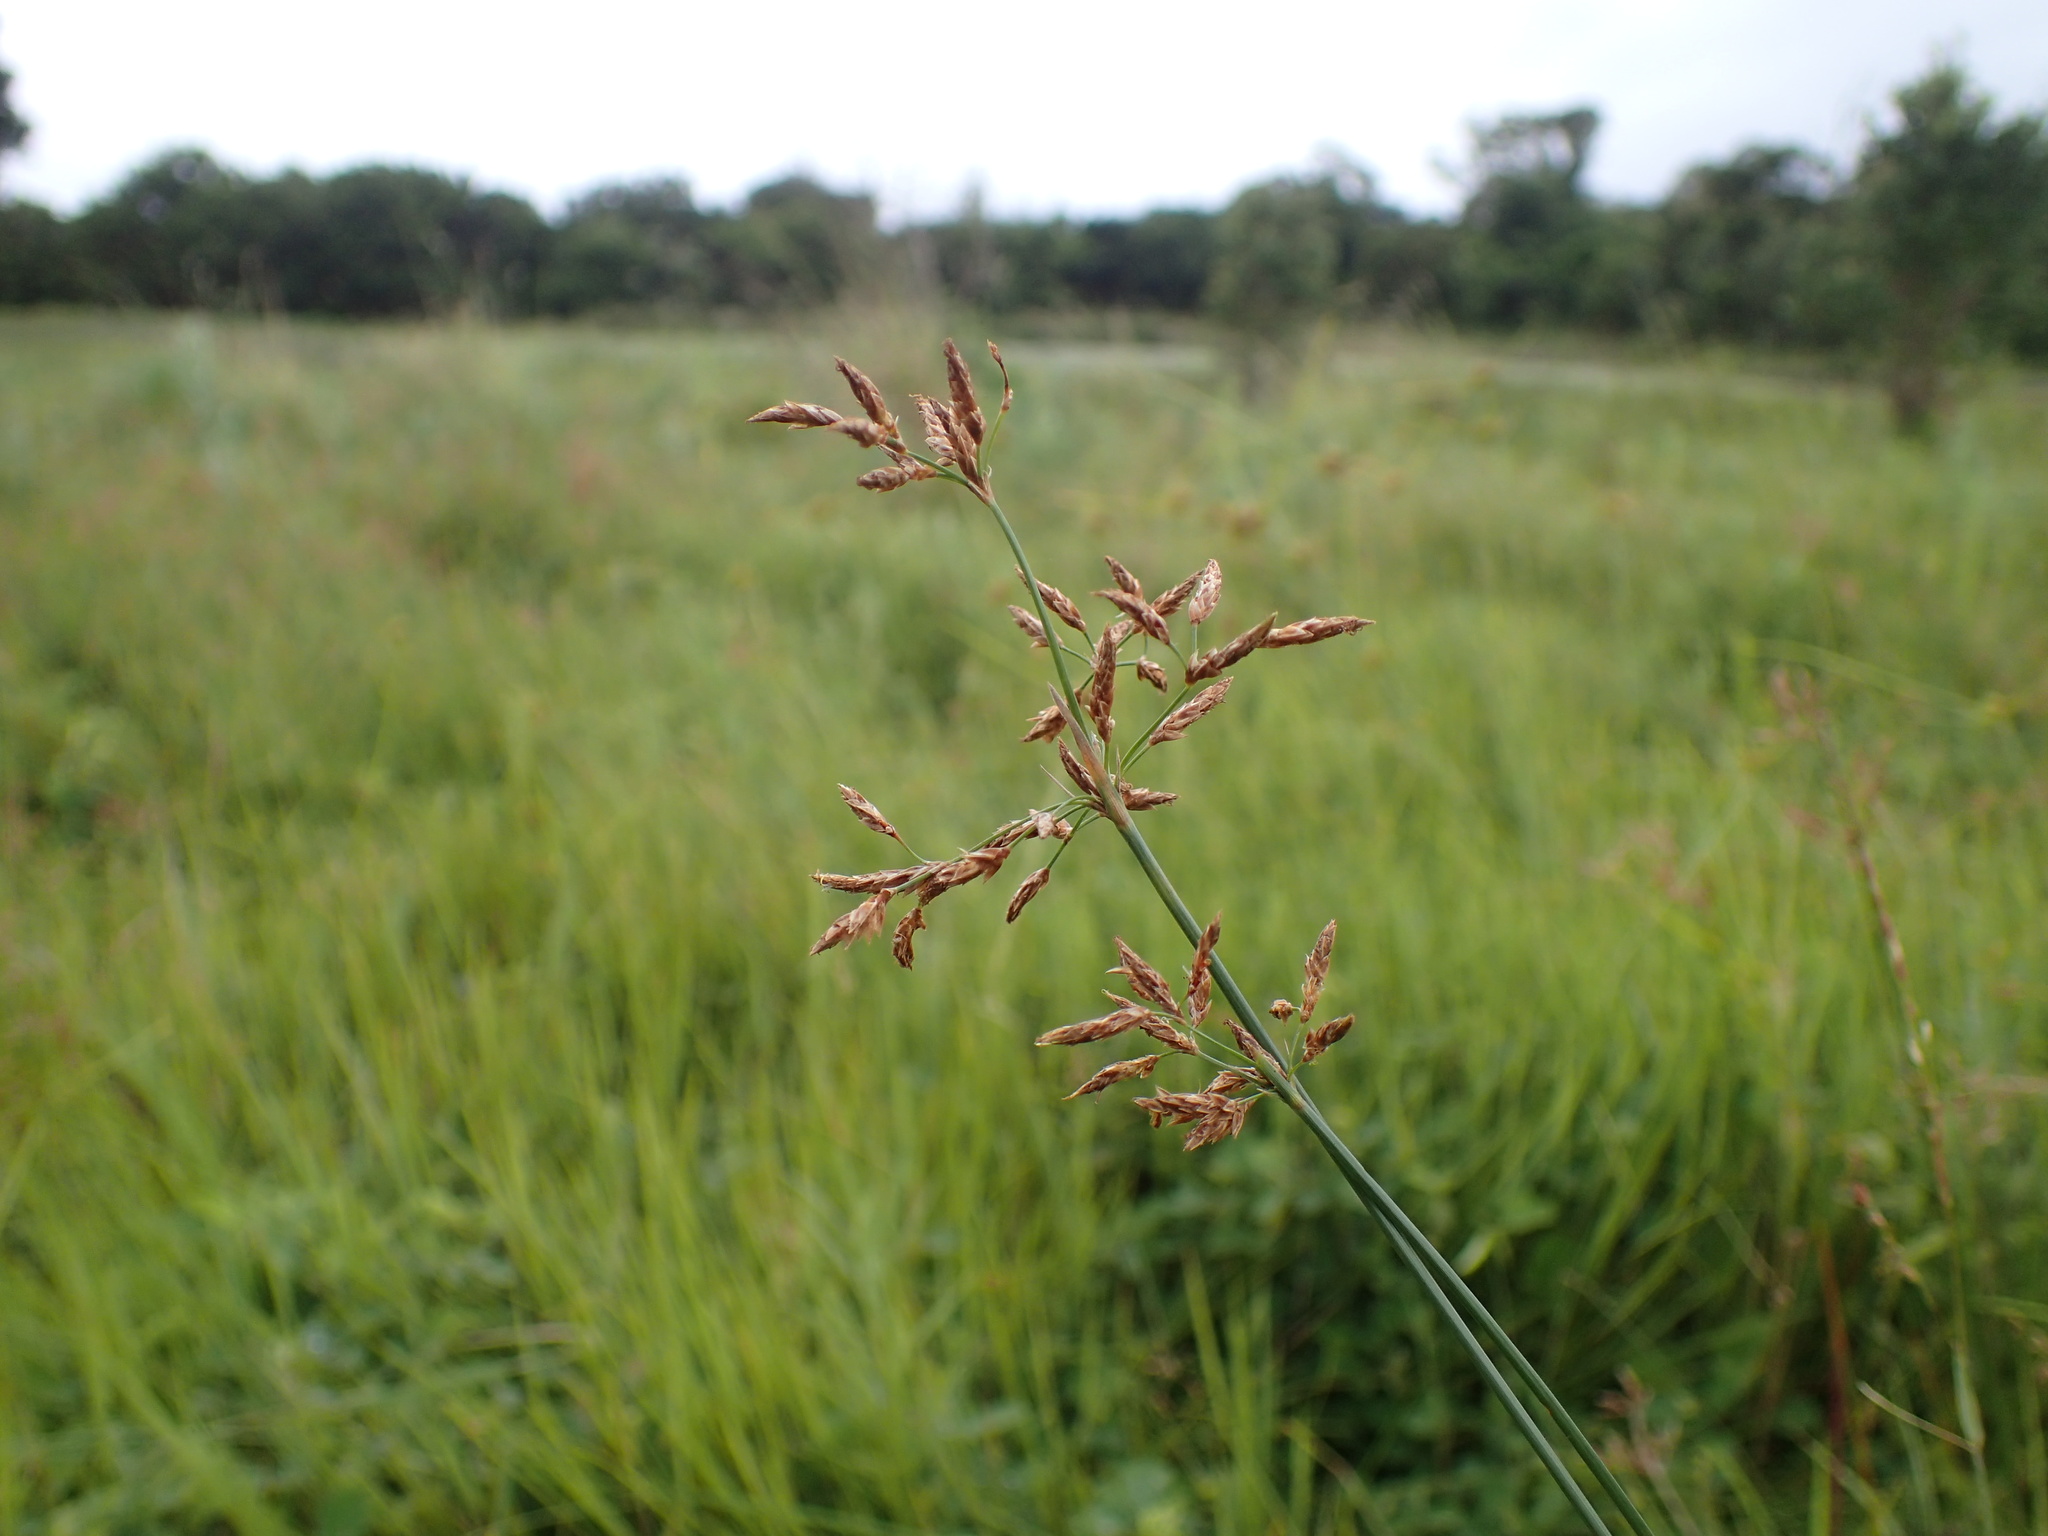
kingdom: Plantae
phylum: Tracheophyta
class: Liliopsida
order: Poales
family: Cyperaceae
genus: Fimbristylis
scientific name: Fimbristylis complanata
